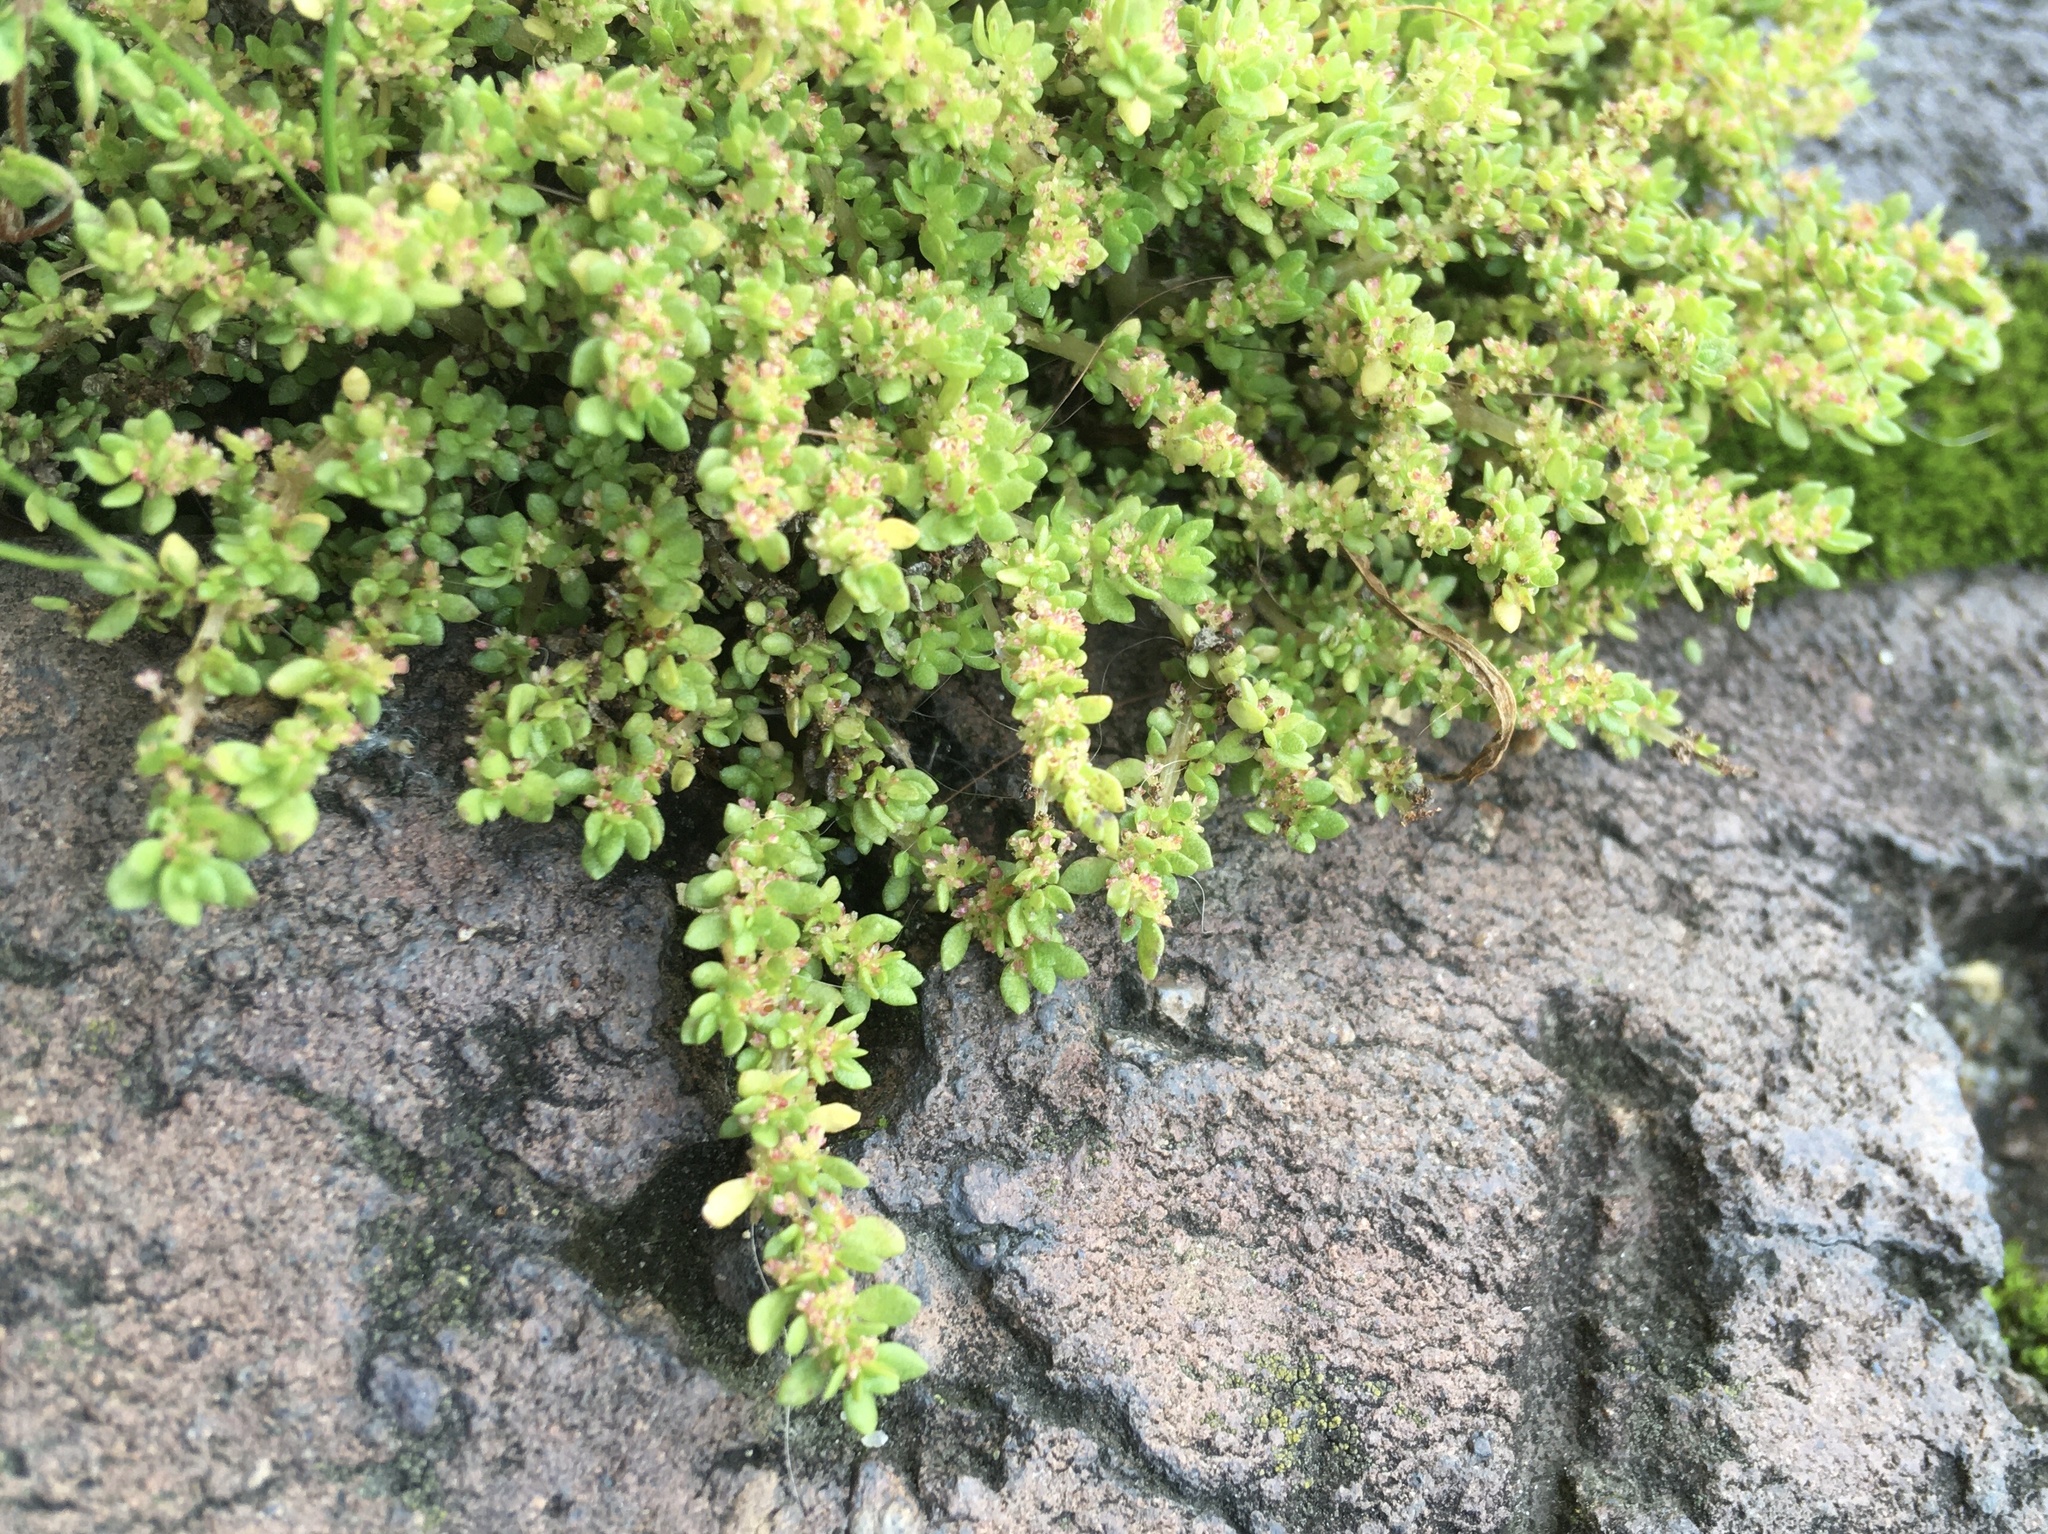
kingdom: Plantae
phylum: Tracheophyta
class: Magnoliopsida
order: Rosales
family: Urticaceae
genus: Pilea
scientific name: Pilea microphylla
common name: Artillery-plant
